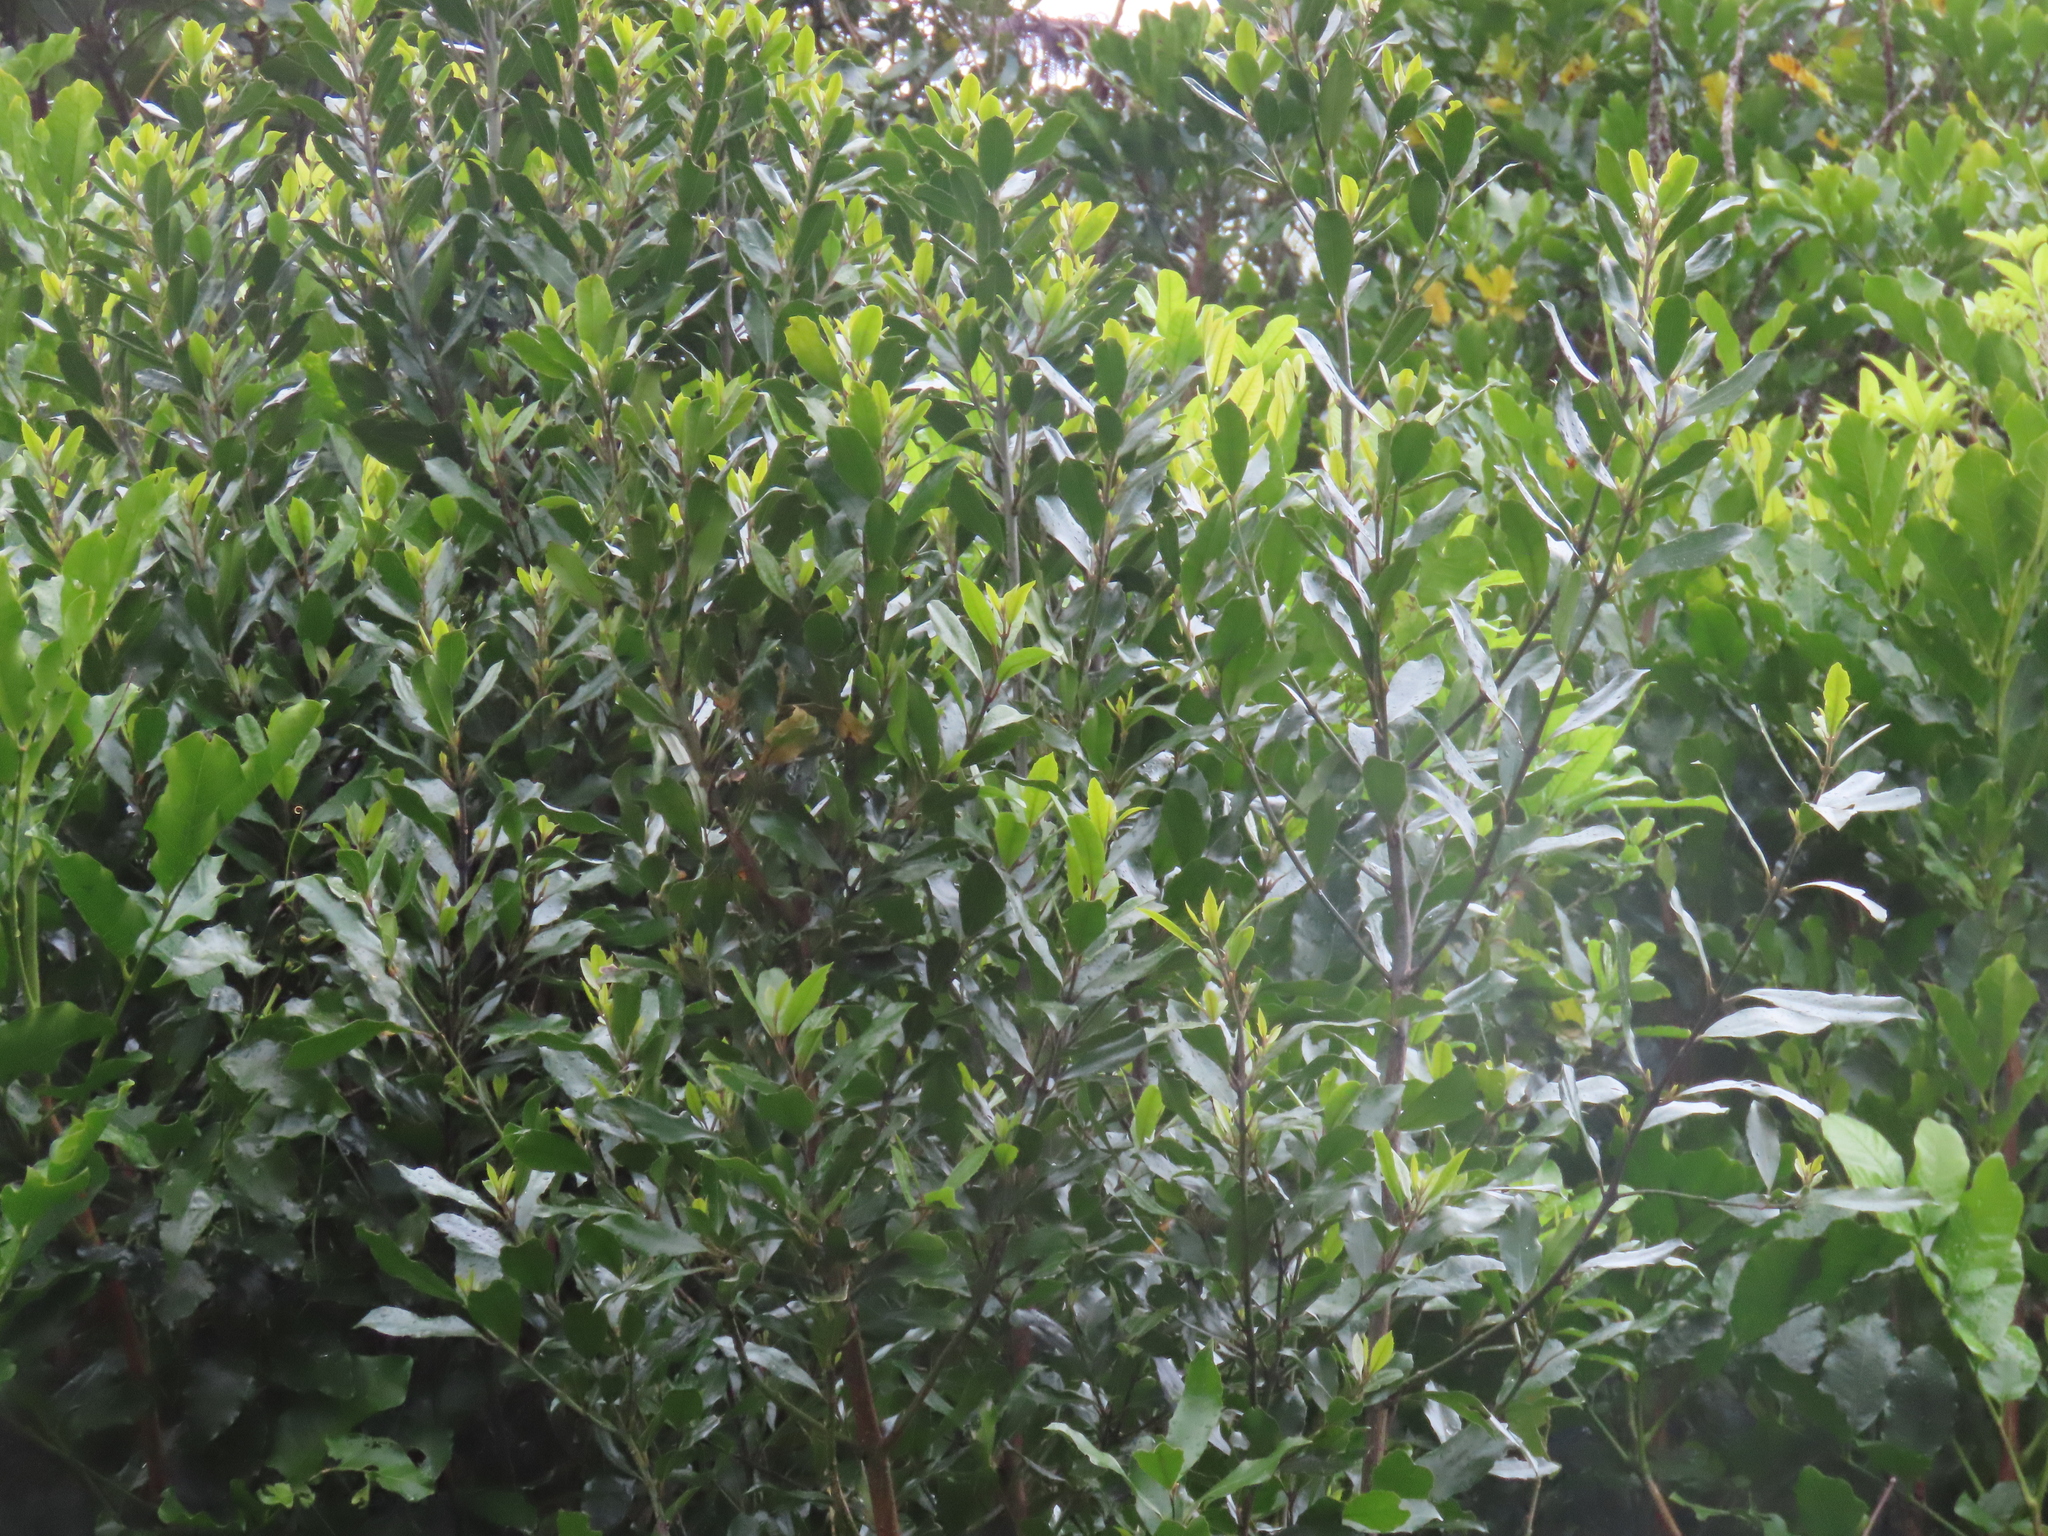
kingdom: Plantae
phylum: Tracheophyta
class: Magnoliopsida
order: Laurales
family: Monimiaceae
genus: Hedycarya
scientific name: Hedycarya arborea
